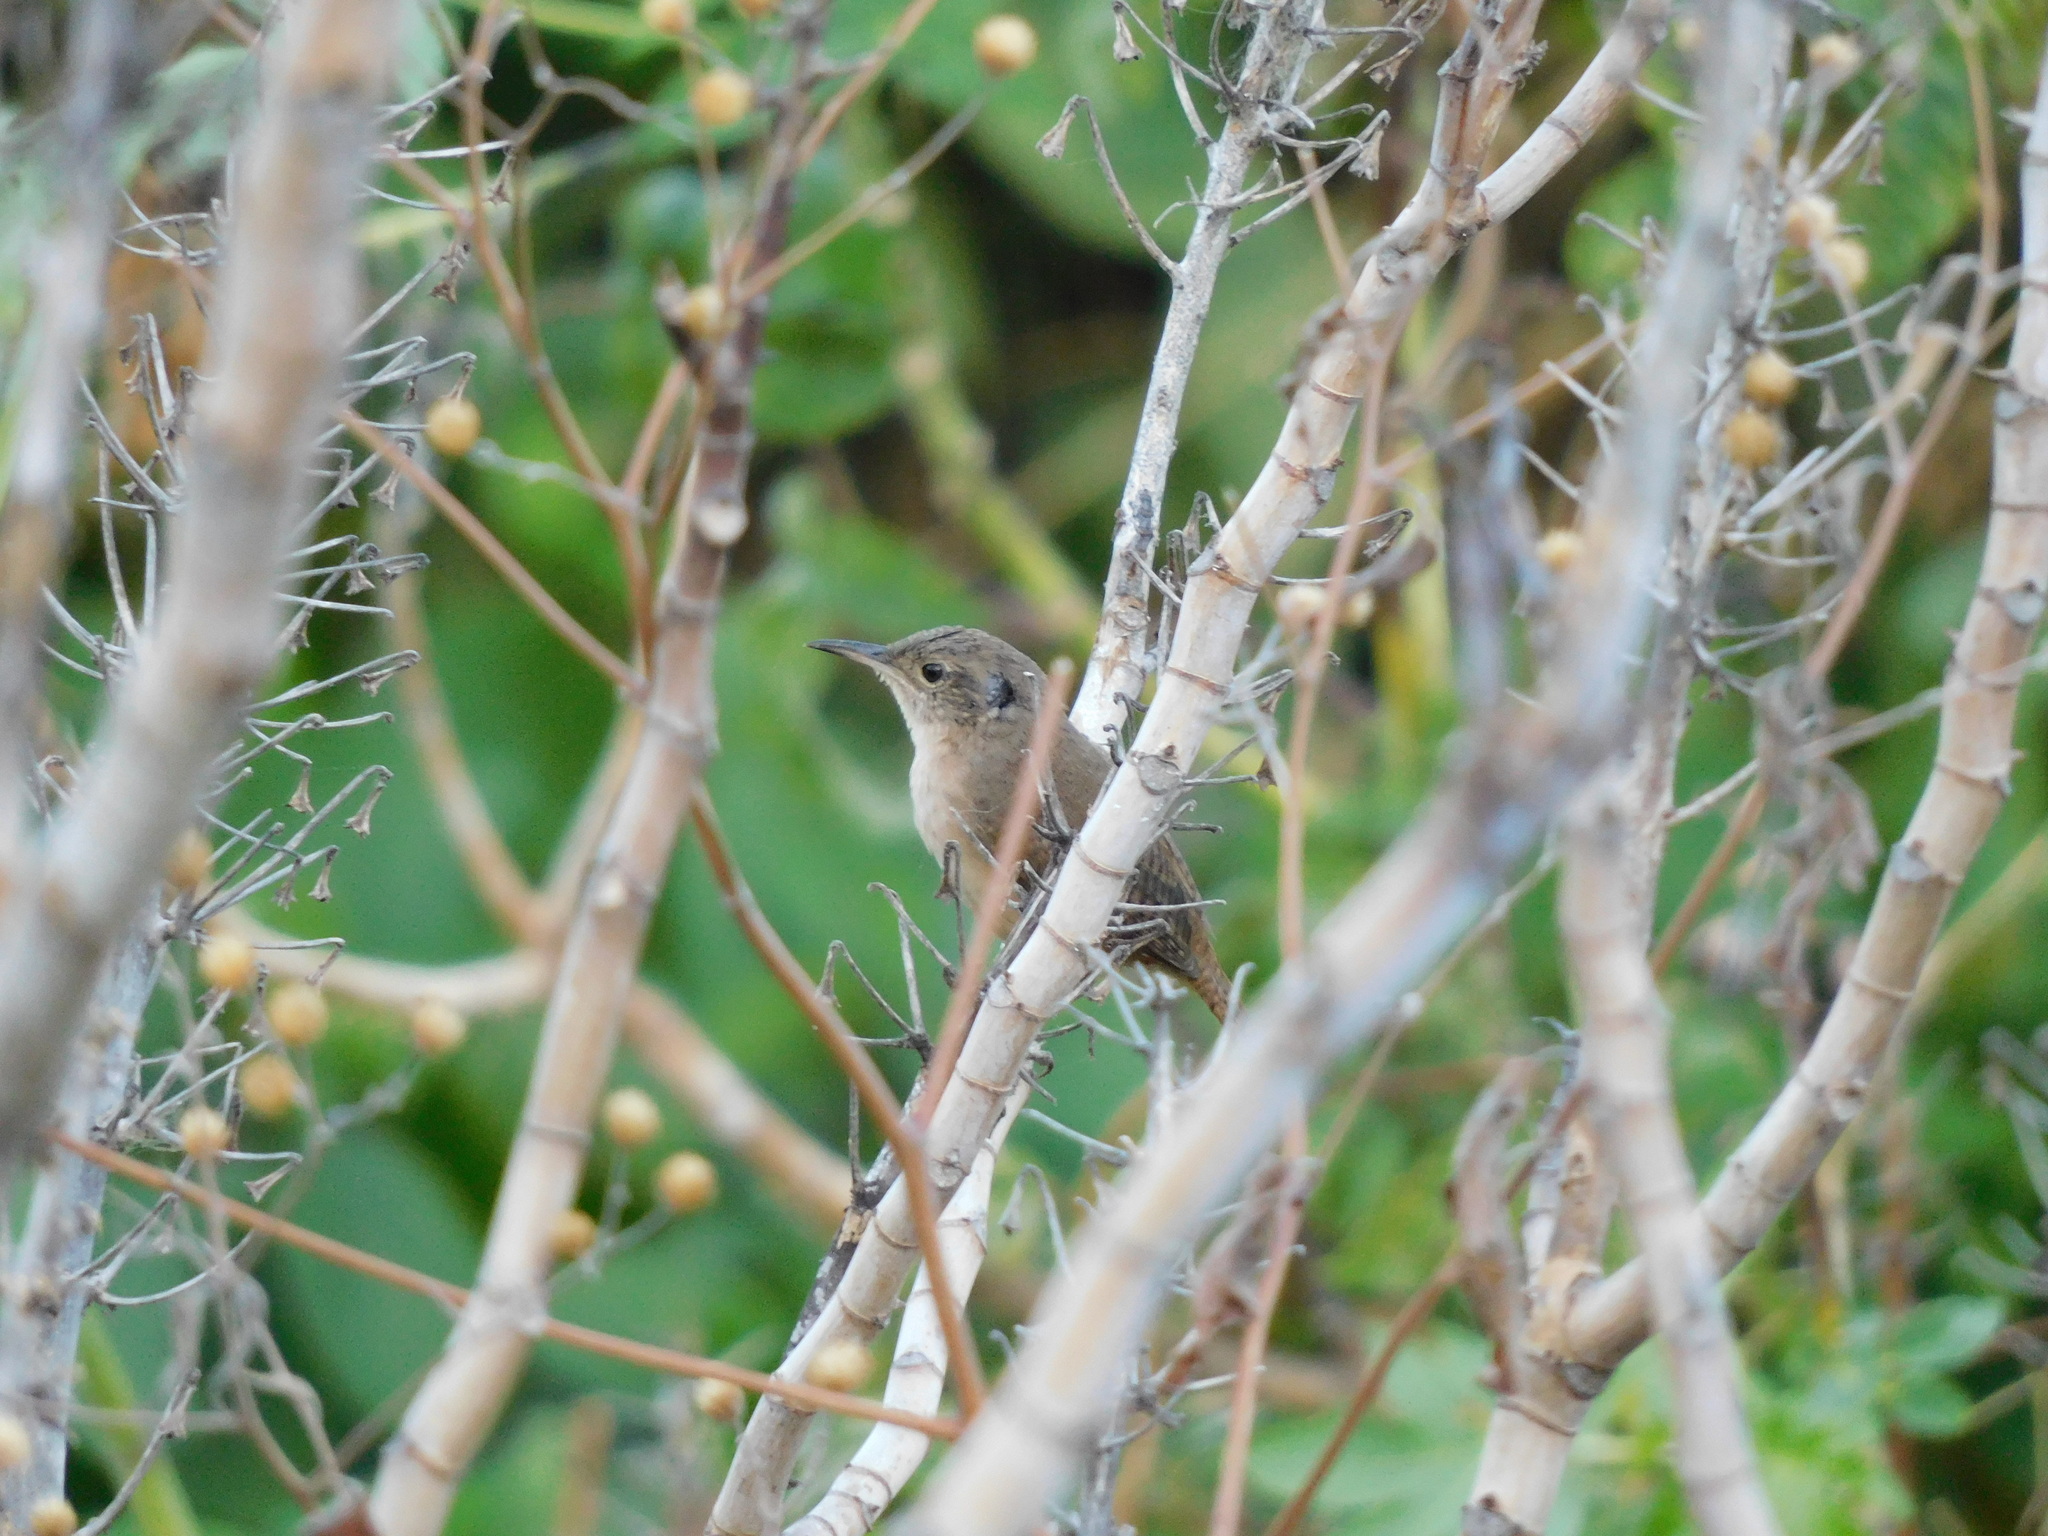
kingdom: Animalia
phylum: Chordata
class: Aves
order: Passeriformes
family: Troglodytidae
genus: Troglodytes
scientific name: Troglodytes aedon
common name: House wren
